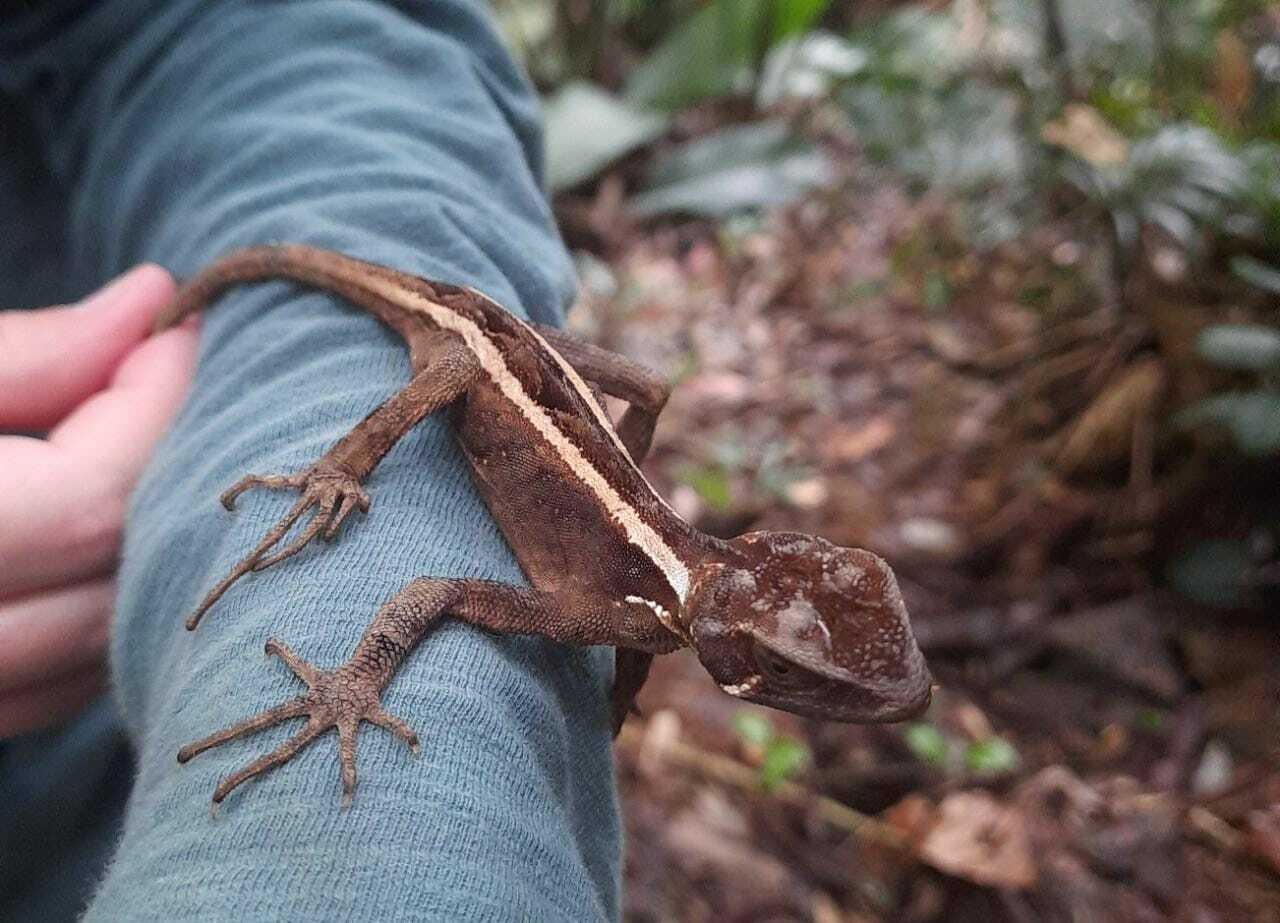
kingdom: Animalia
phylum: Chordata
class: Squamata
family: Leiosauridae
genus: Enyalius
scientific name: Enyalius iheringii
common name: Ihering's fathead anole
